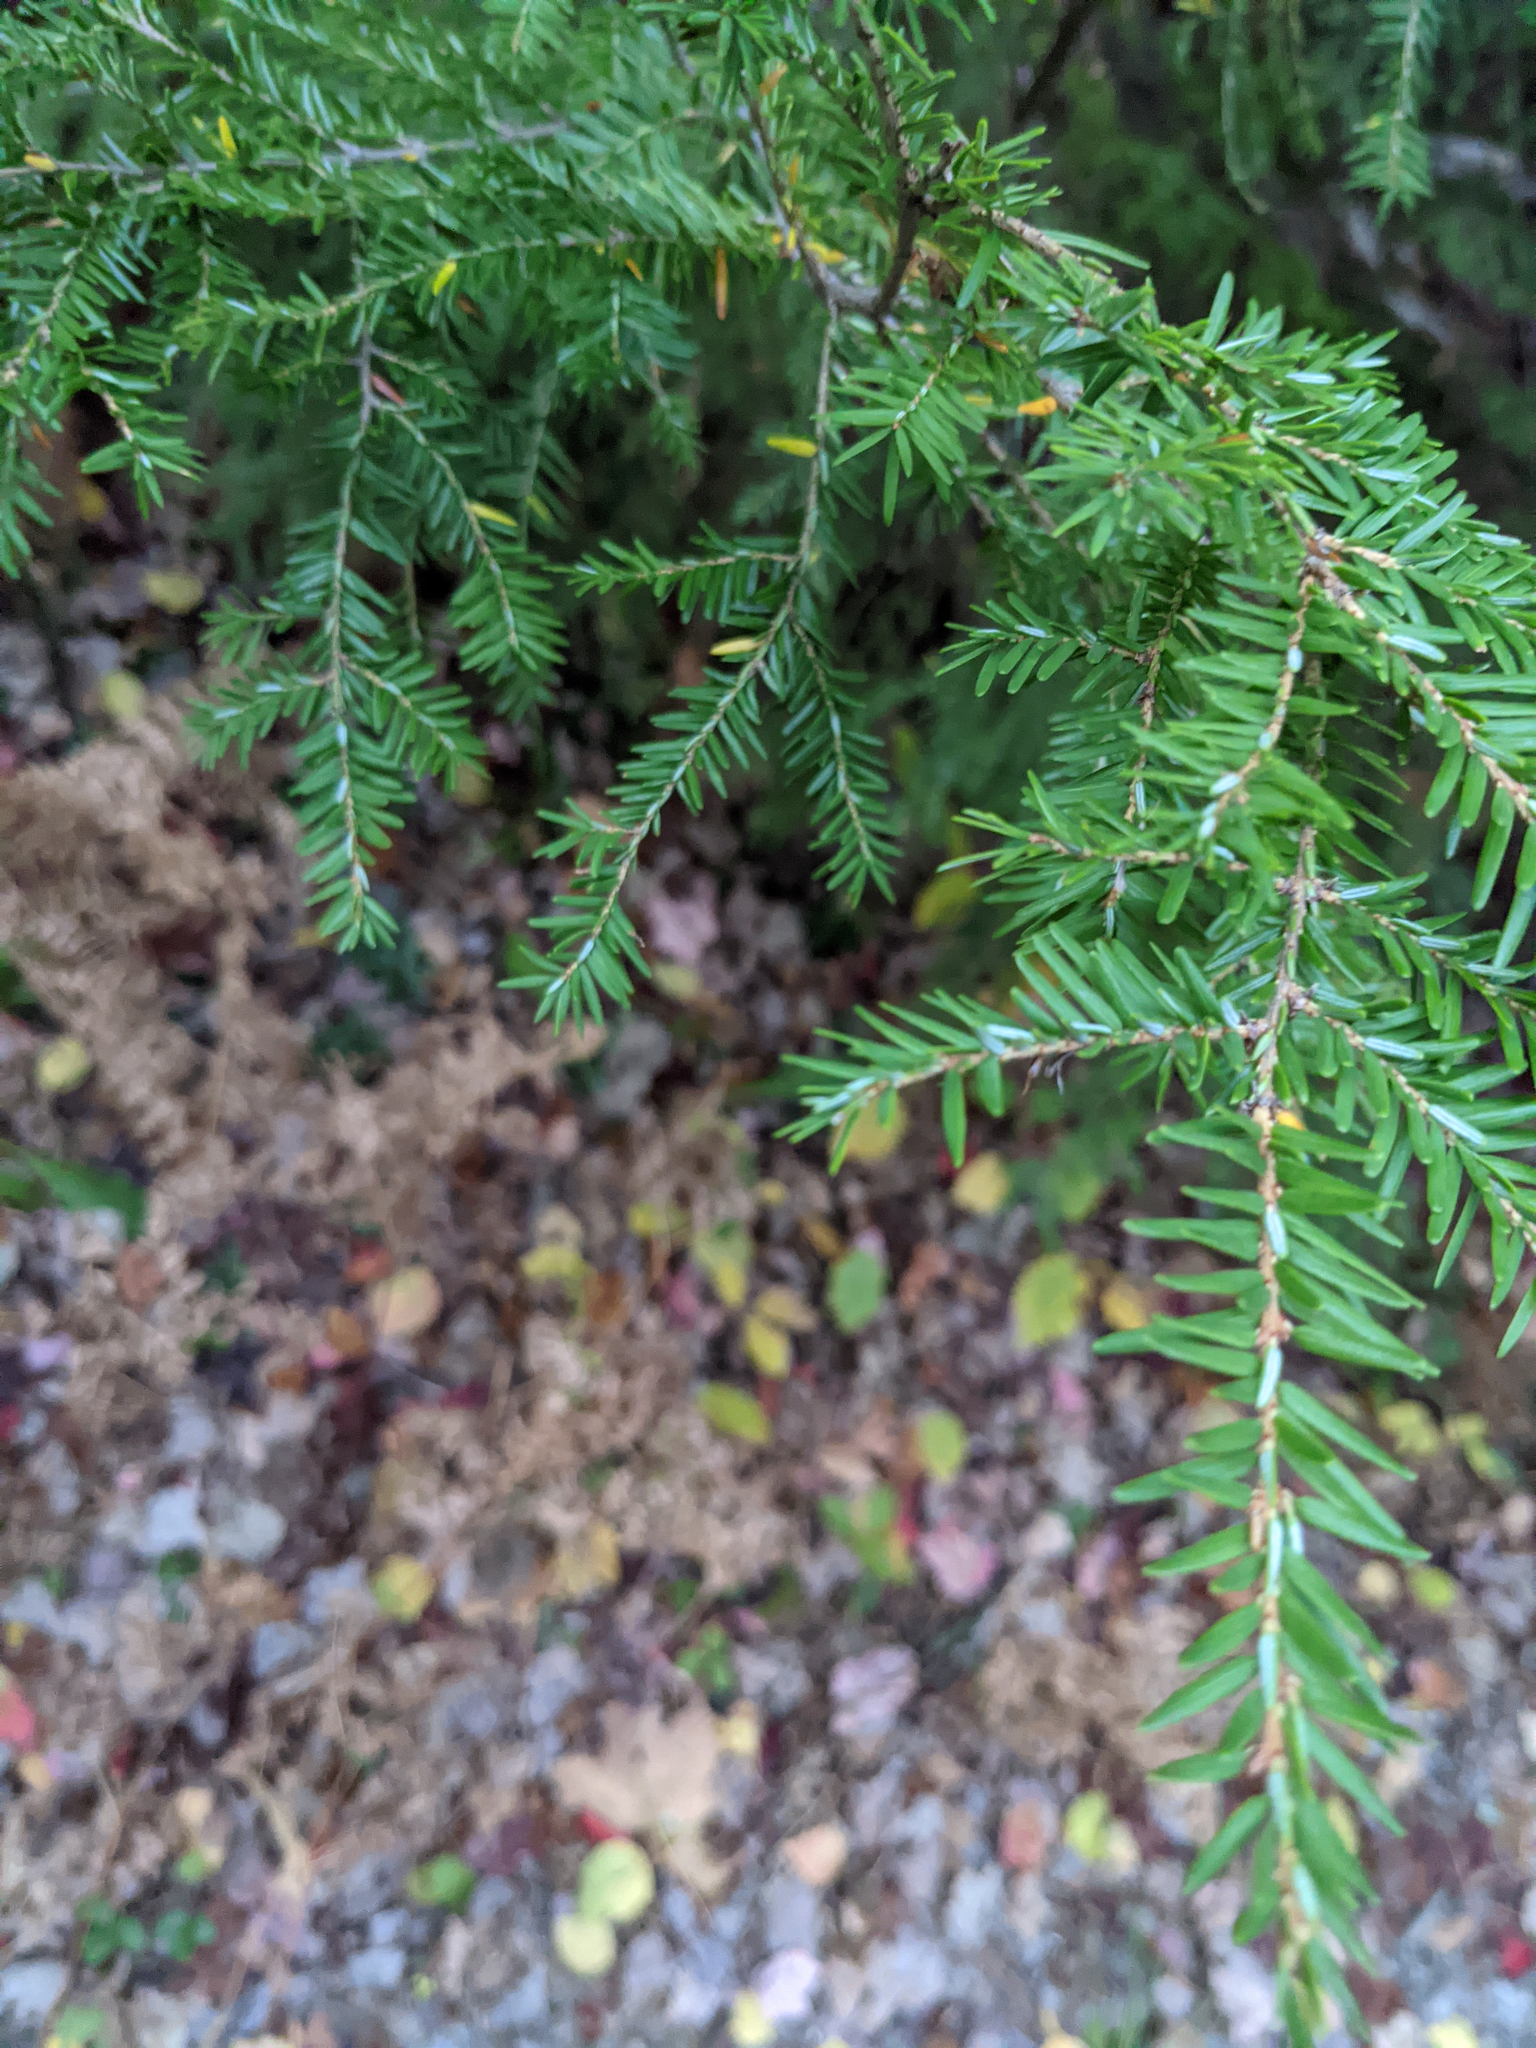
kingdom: Plantae
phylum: Tracheophyta
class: Pinopsida
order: Pinales
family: Pinaceae
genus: Tsuga
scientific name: Tsuga canadensis
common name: Eastern hemlock
